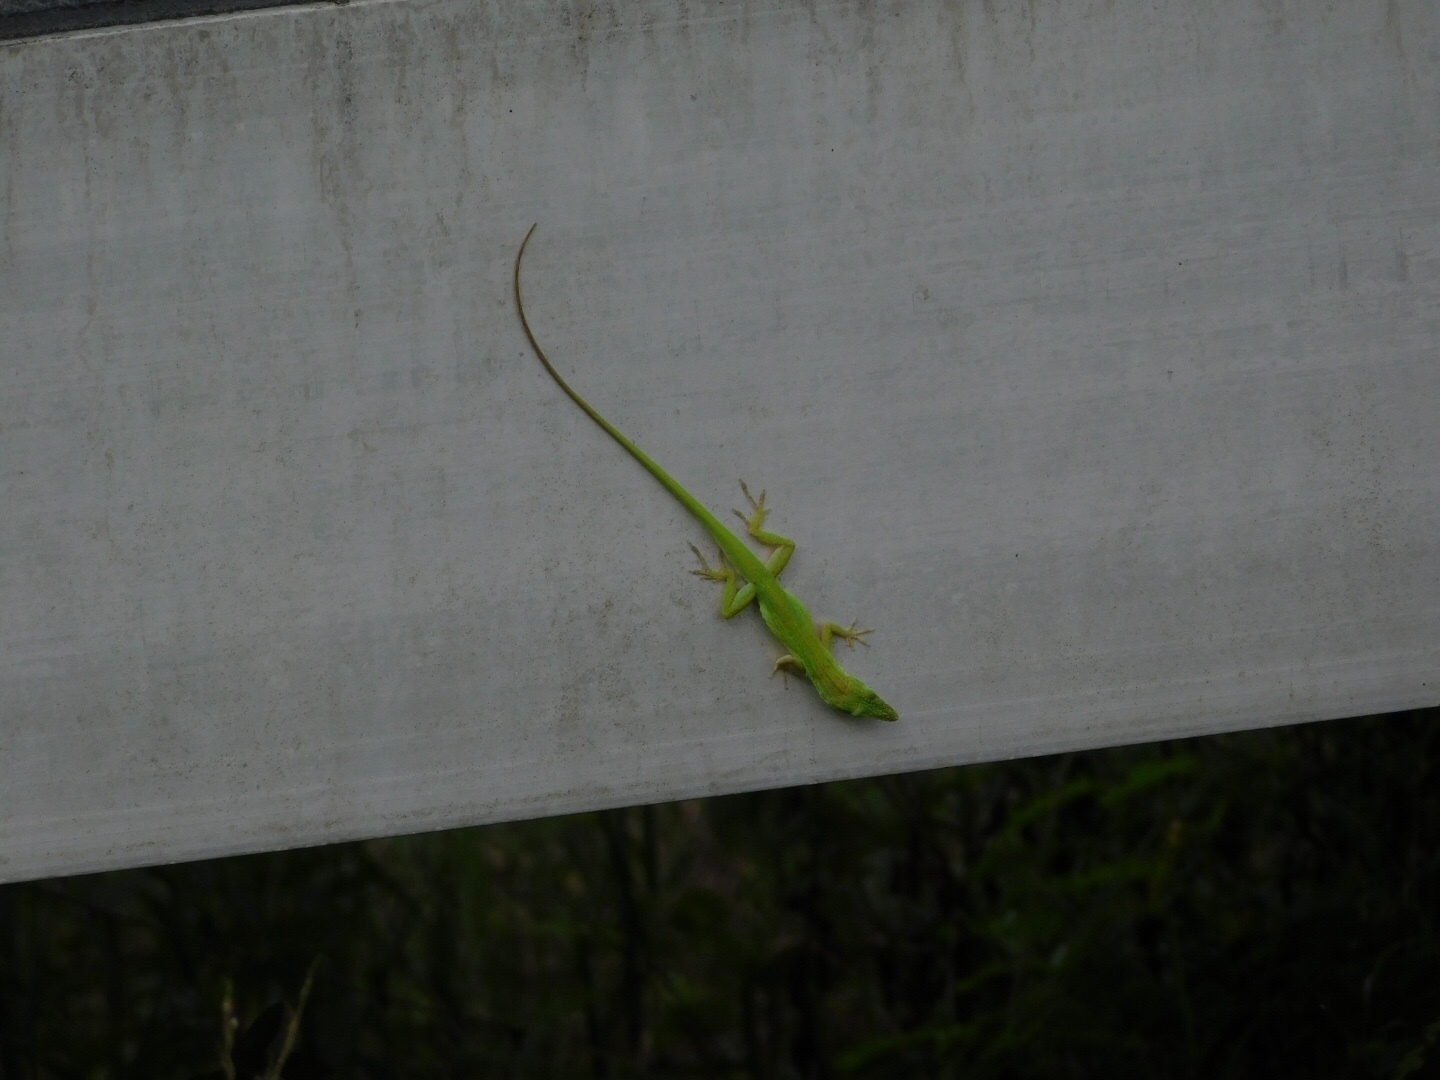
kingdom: Animalia
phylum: Chordata
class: Squamata
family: Dactyloidae
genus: Anolis
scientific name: Anolis carolinensis
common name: Green anole
